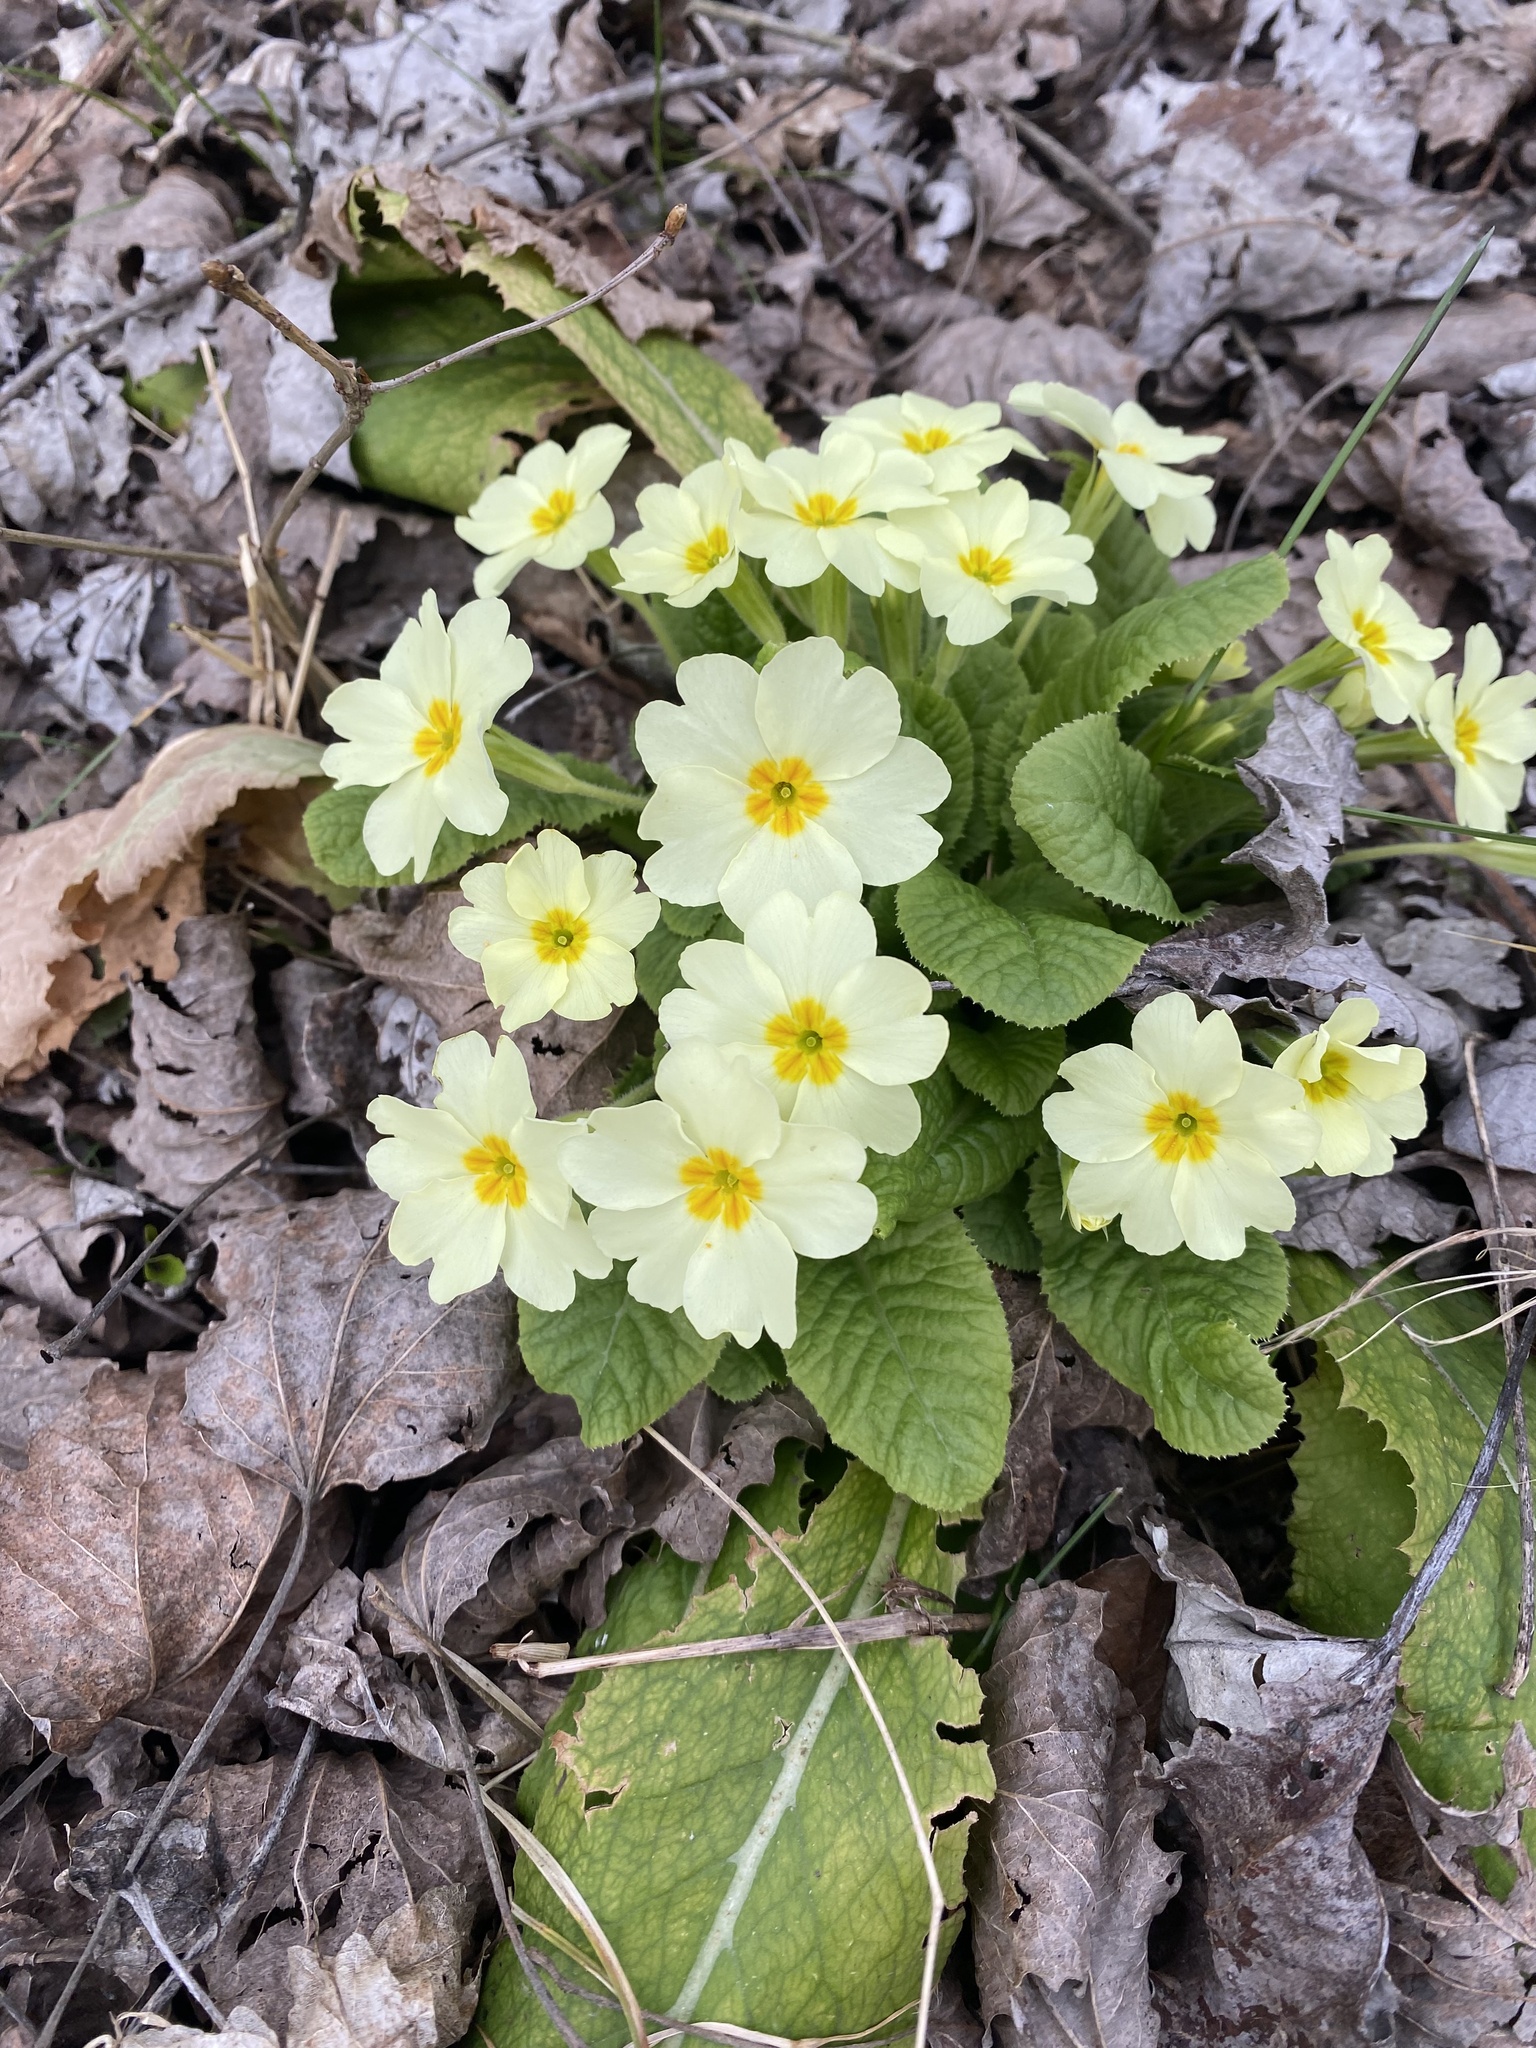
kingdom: Plantae
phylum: Tracheophyta
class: Magnoliopsida
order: Ericales
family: Primulaceae
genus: Primula
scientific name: Primula vulgaris
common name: Primrose
